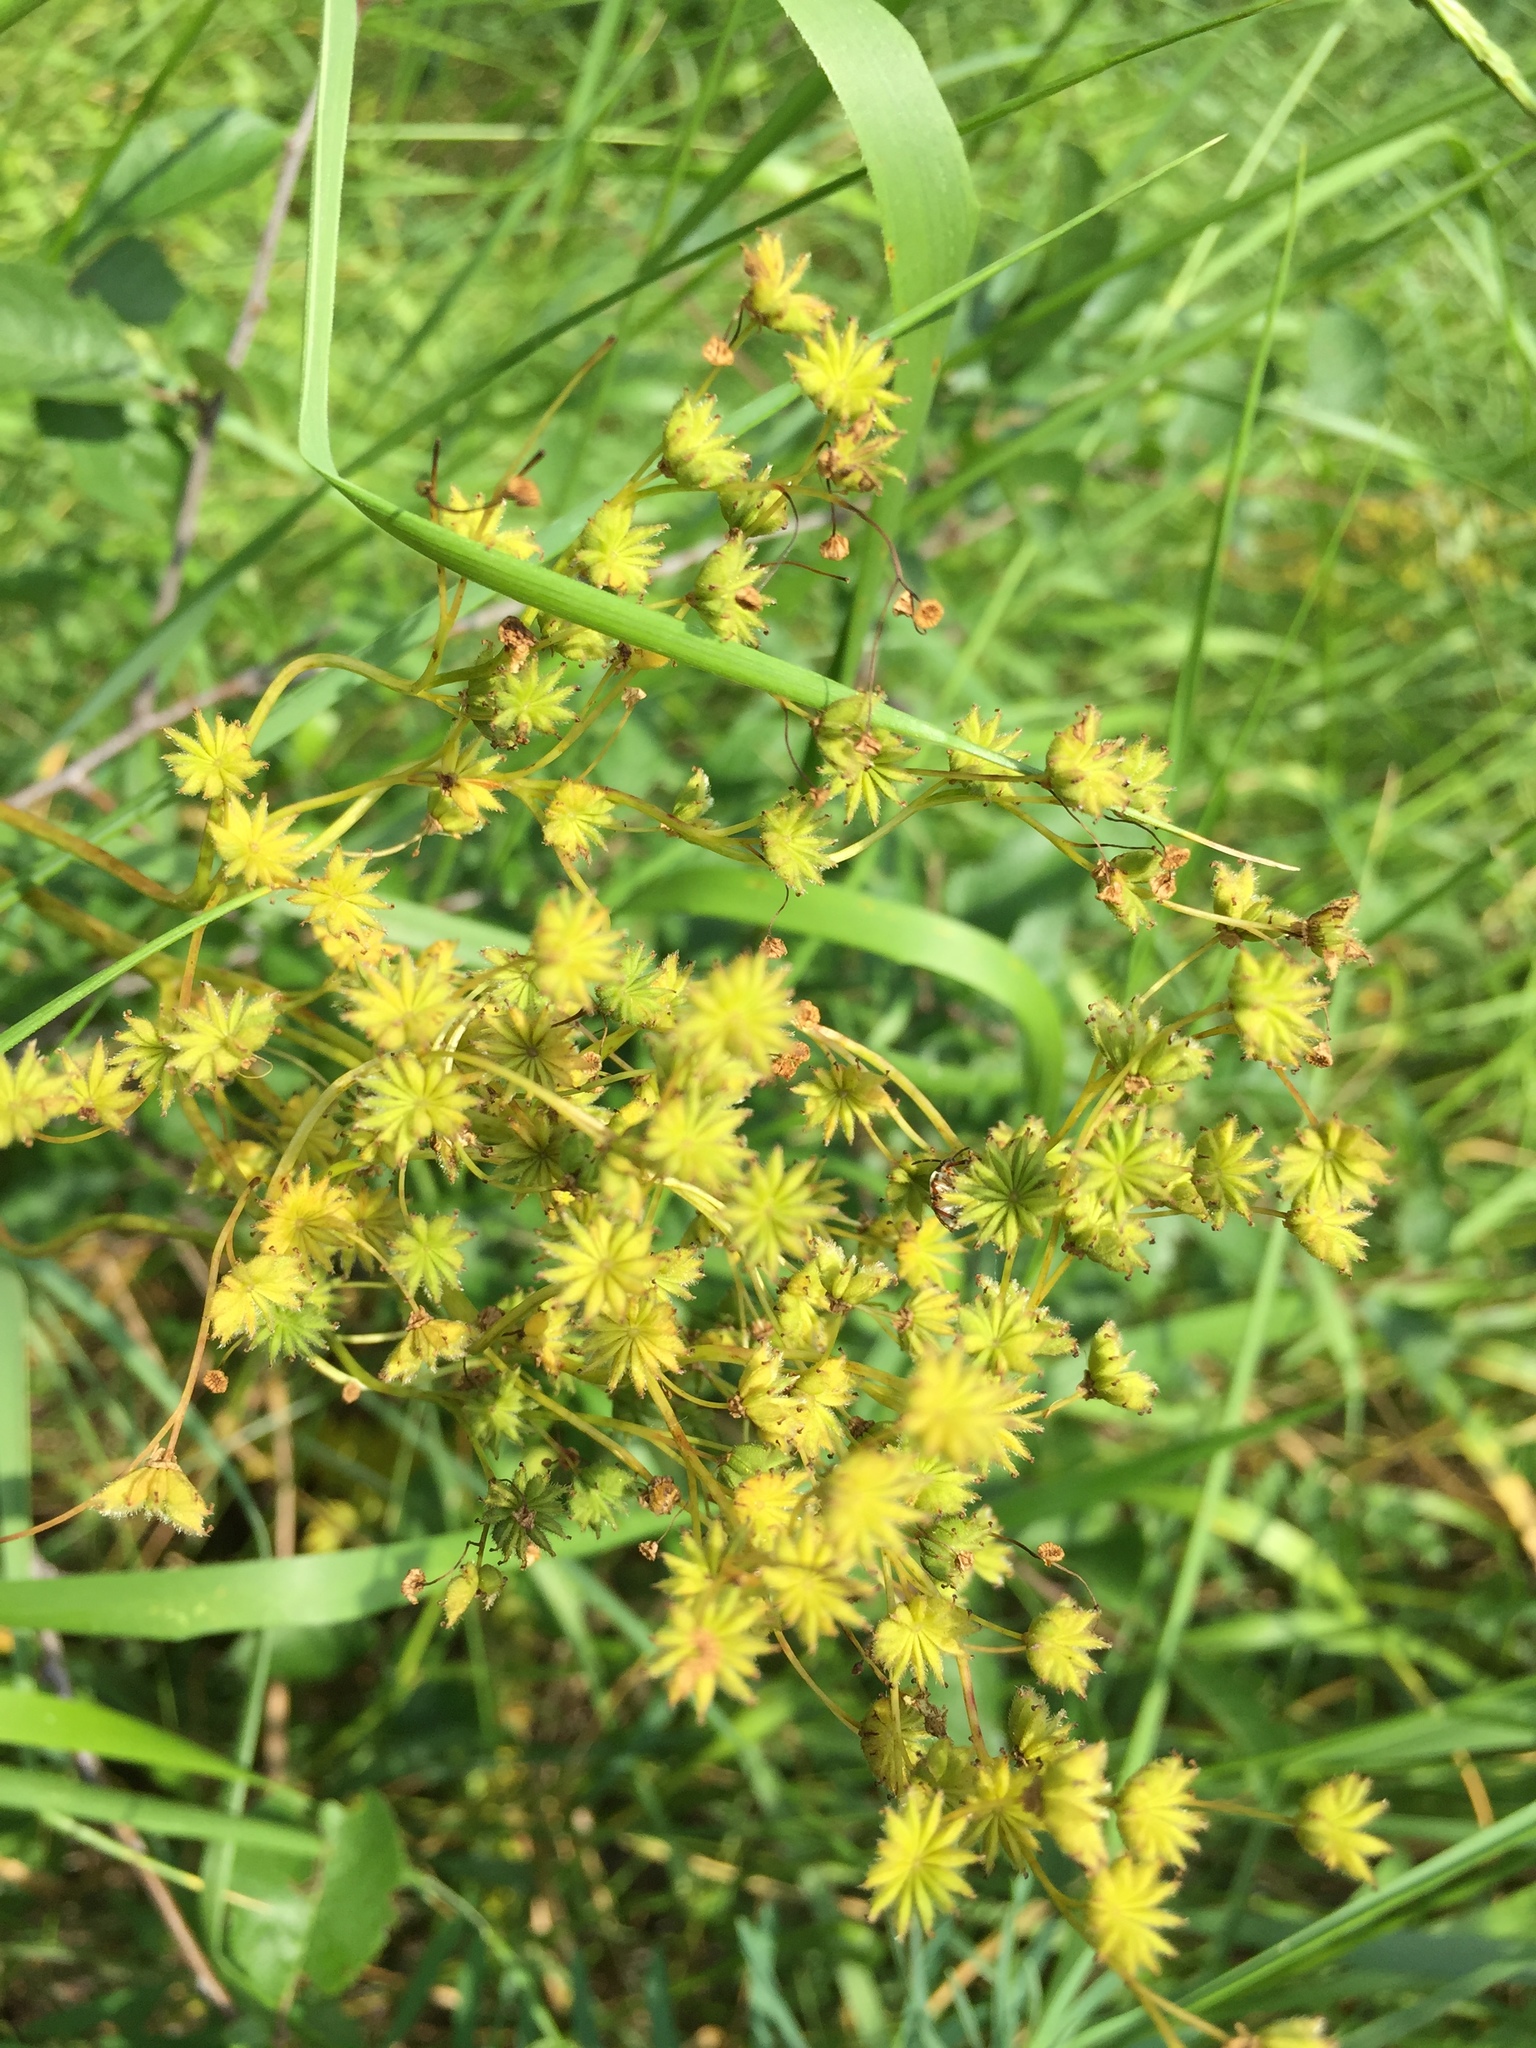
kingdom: Plantae
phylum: Tracheophyta
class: Magnoliopsida
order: Rosales
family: Rosaceae
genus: Filipendula
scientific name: Filipendula vulgaris
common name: Dropwort
